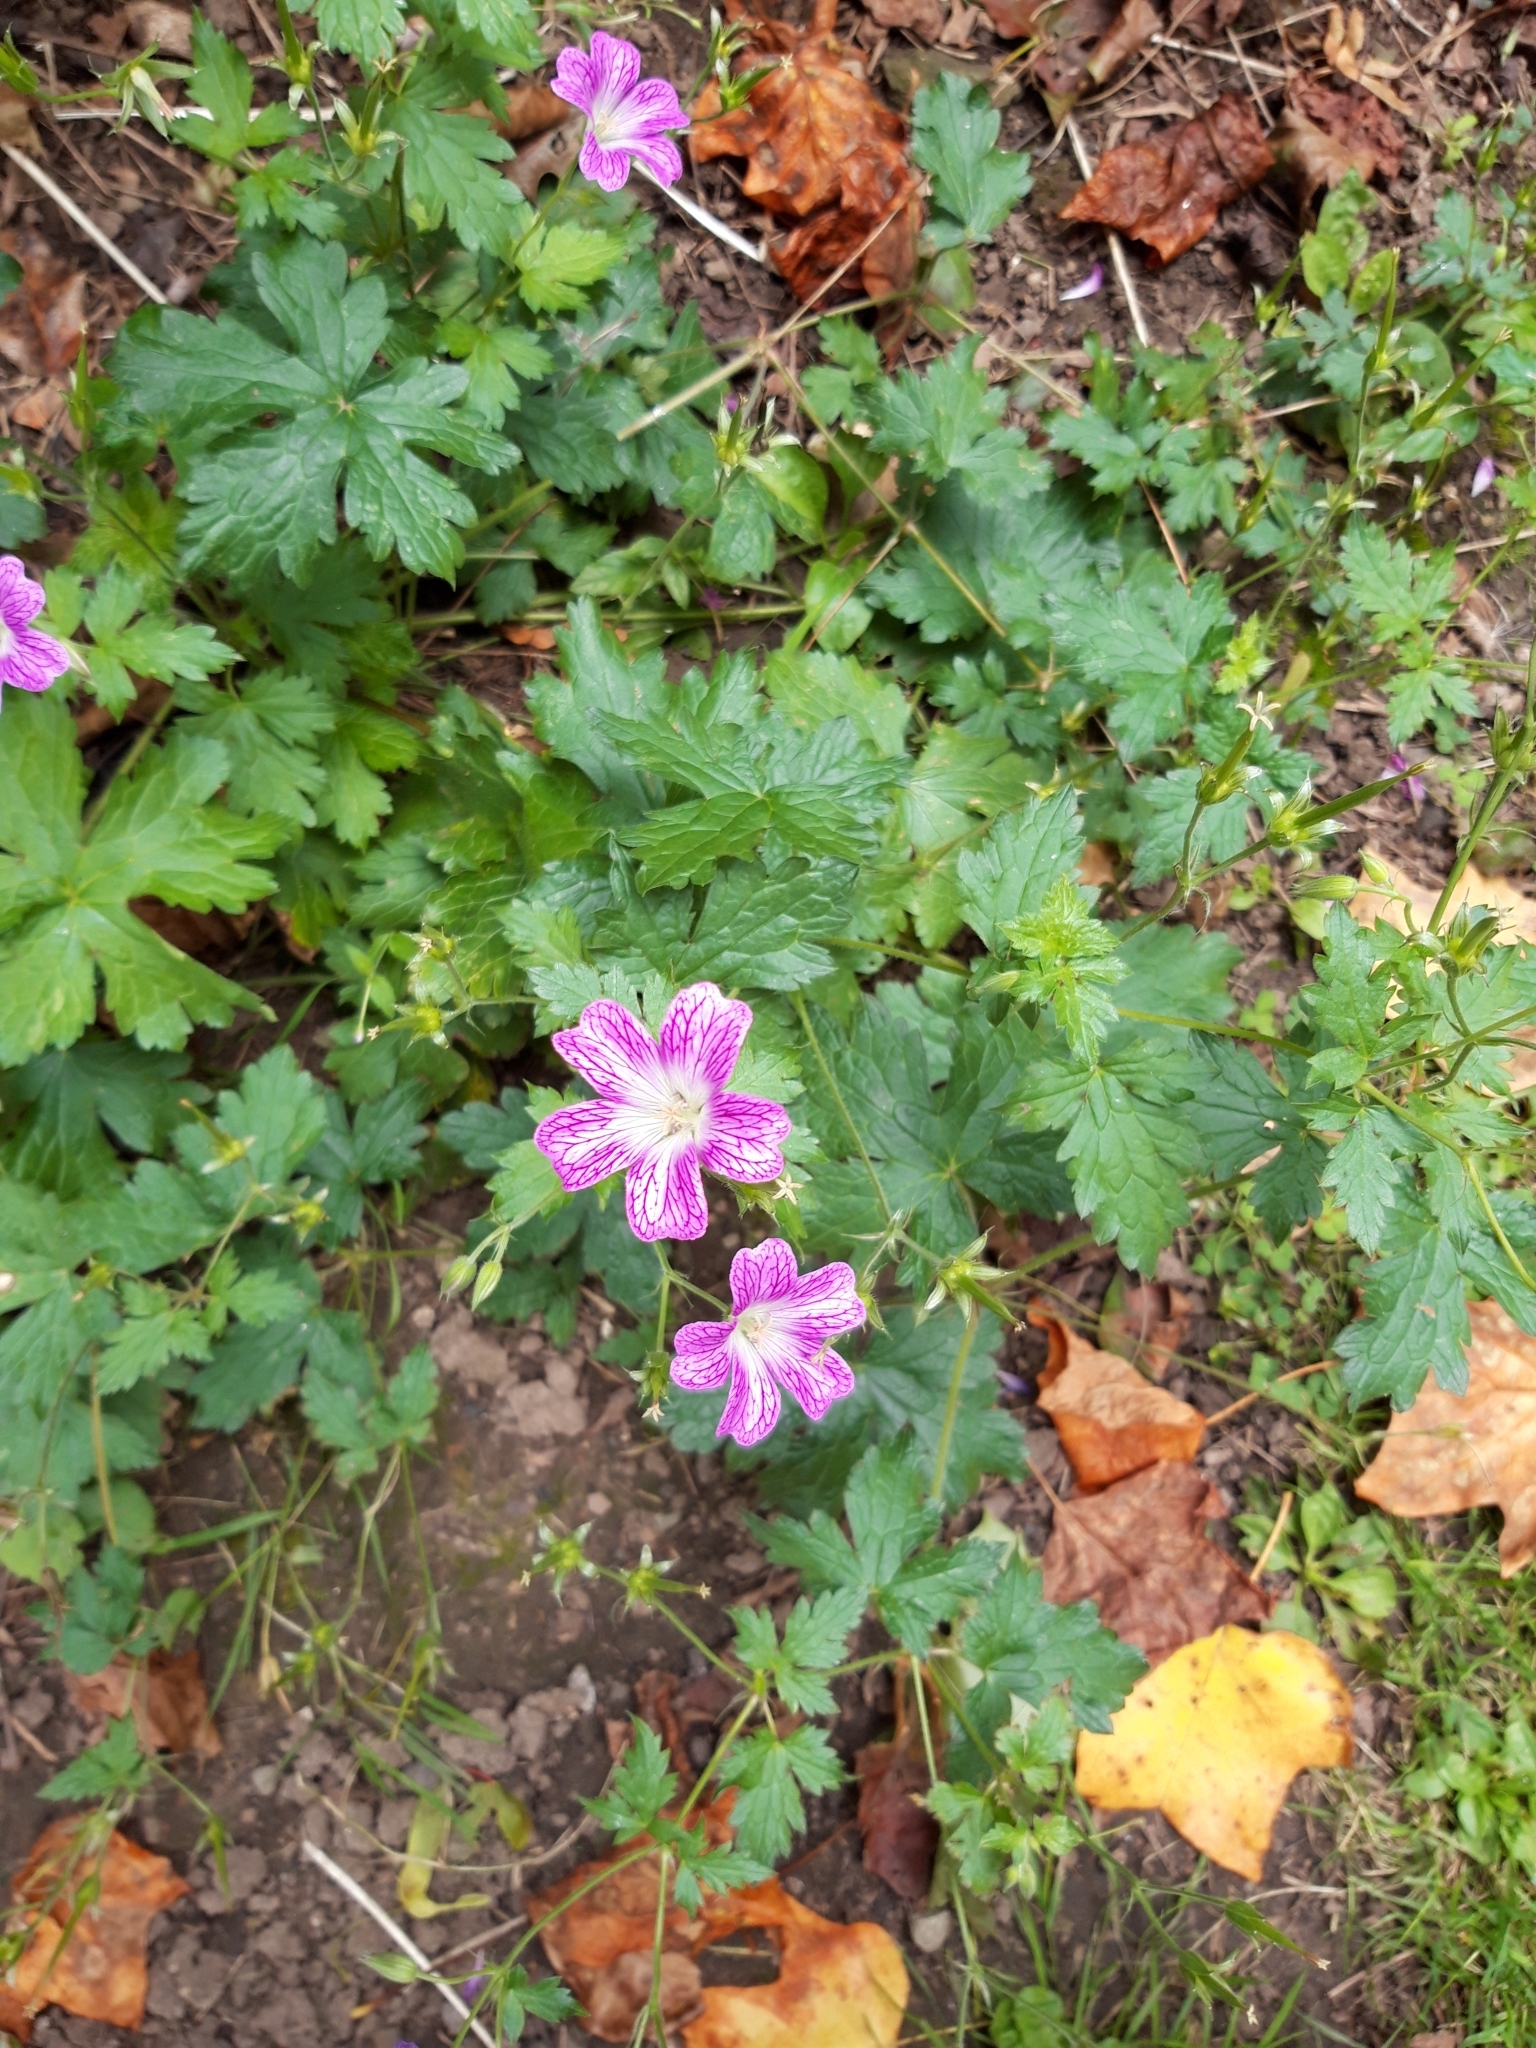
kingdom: Plantae
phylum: Tracheophyta
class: Magnoliopsida
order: Geraniales
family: Geraniaceae
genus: Geranium
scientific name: Geranium oxonianum
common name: Druce's crane's-bill
